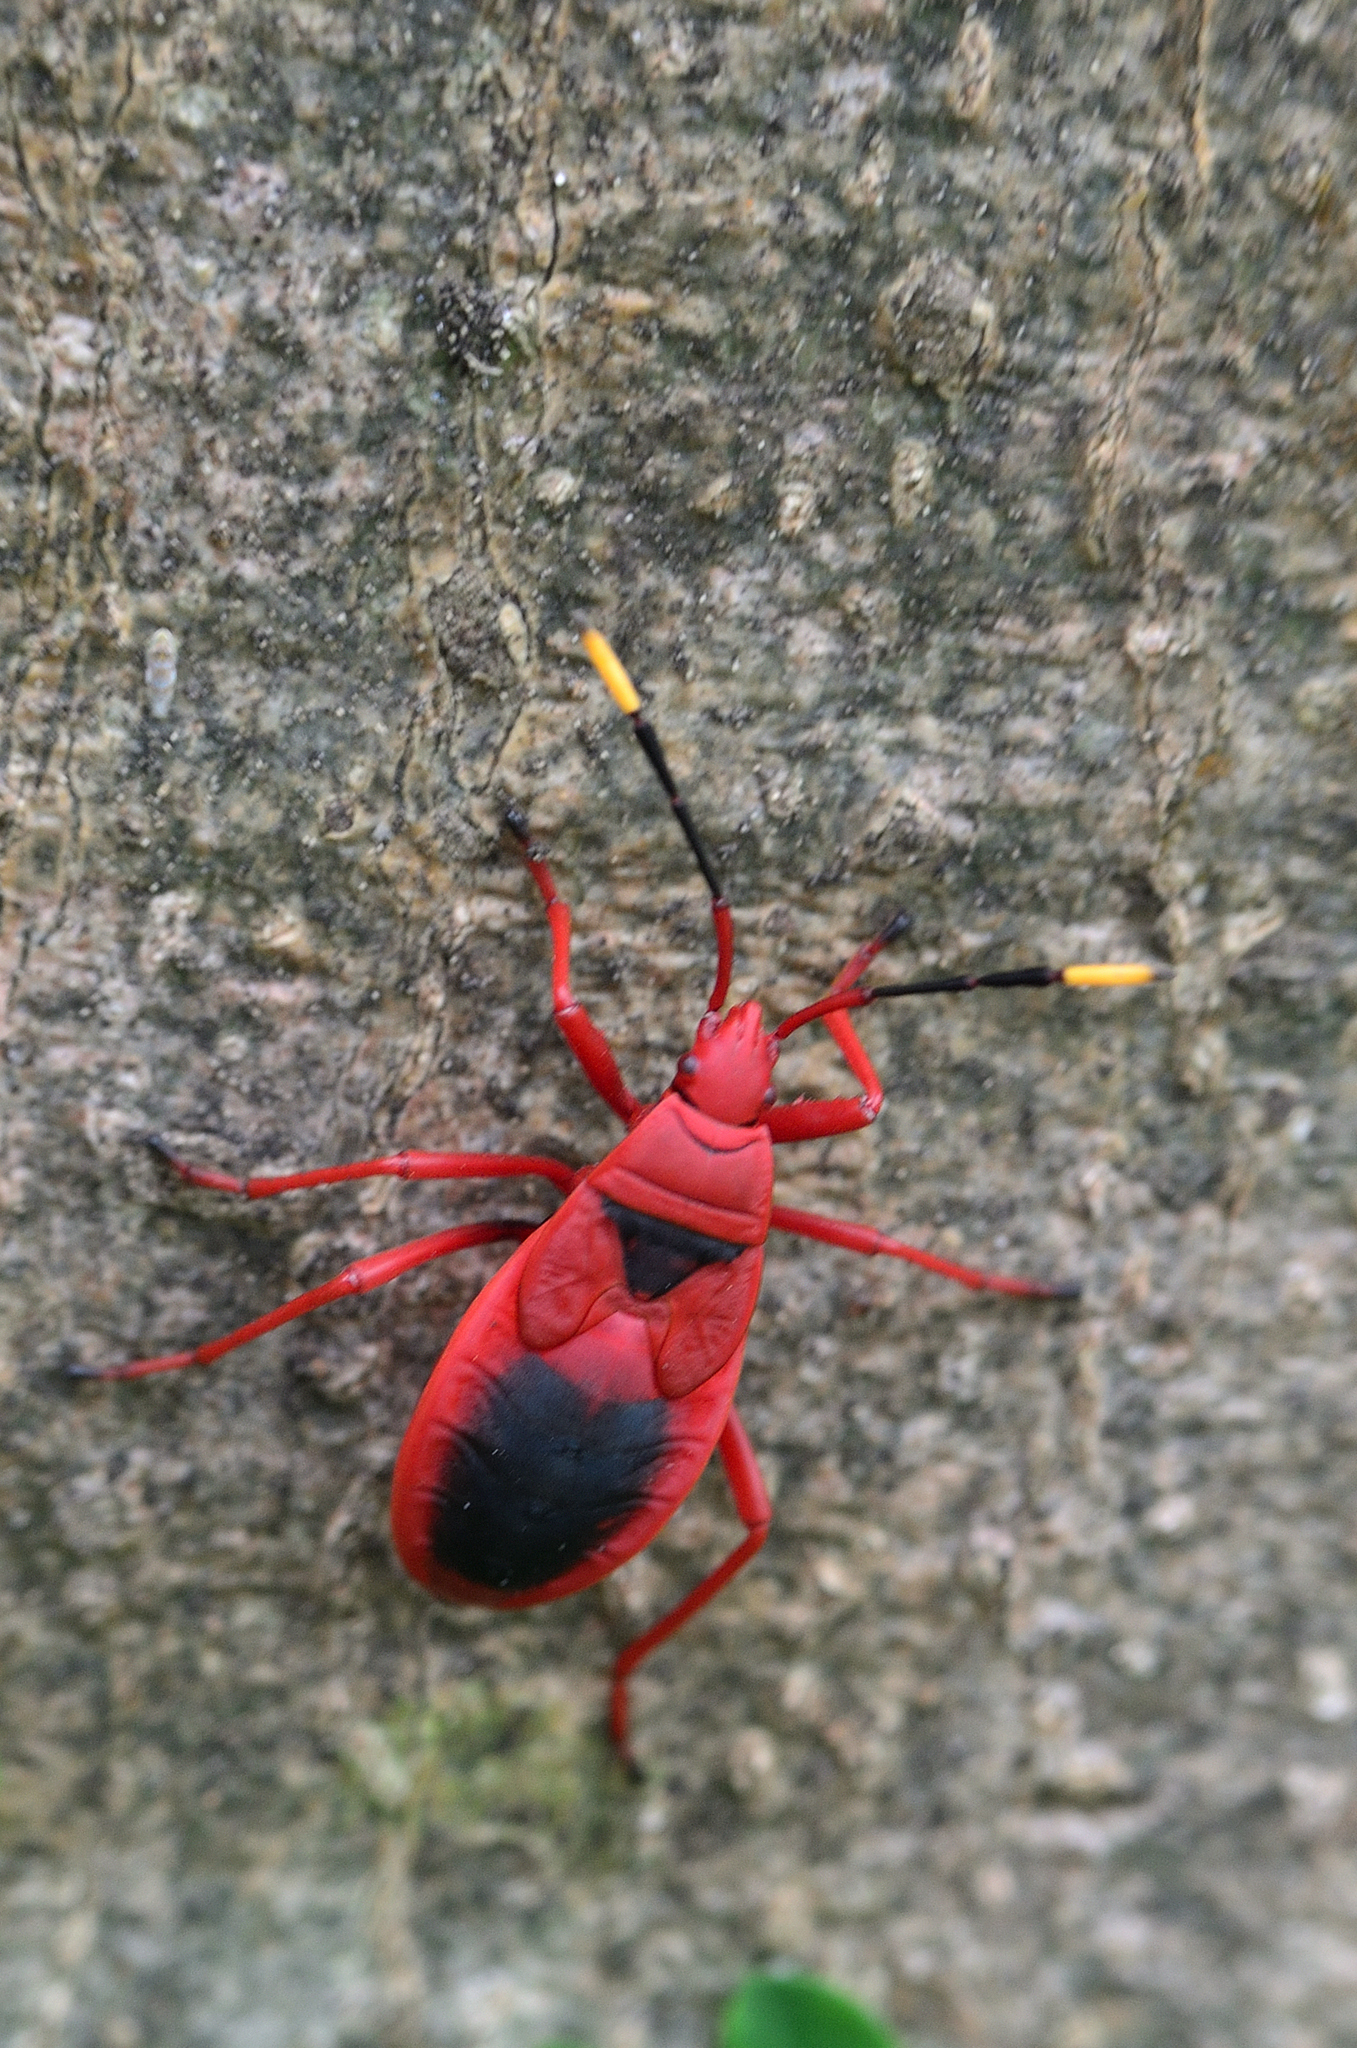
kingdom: Animalia
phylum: Arthropoda
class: Insecta
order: Hemiptera
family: Pyrrhocoridae
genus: Probergrothius
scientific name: Probergrothius
